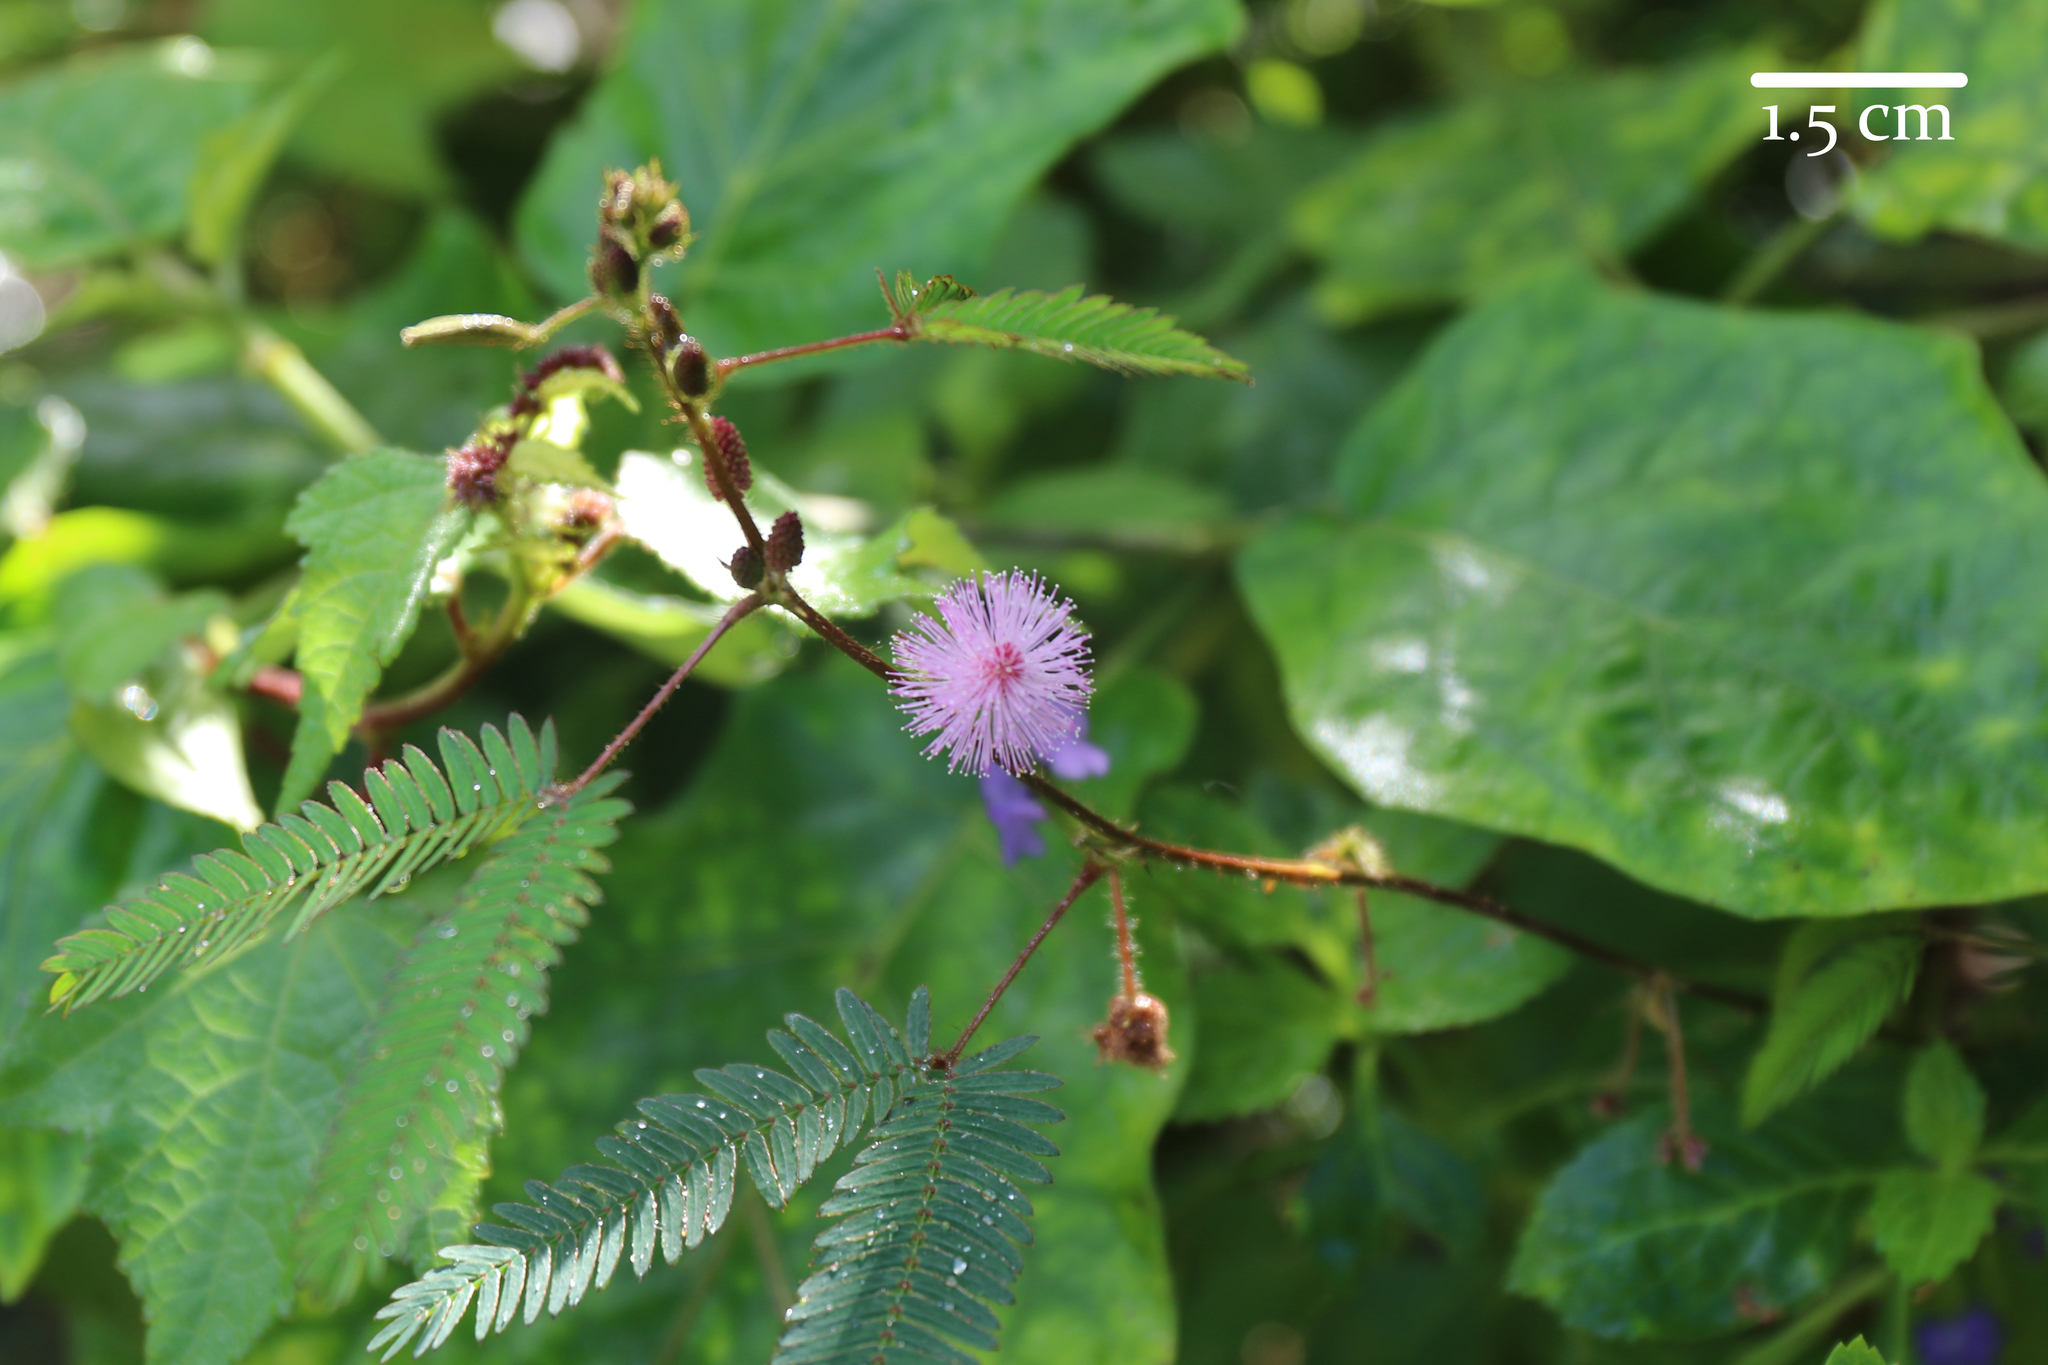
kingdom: Plantae
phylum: Tracheophyta
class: Magnoliopsida
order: Fabales
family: Fabaceae
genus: Mimosa
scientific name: Mimosa pudica
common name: Sensitive plant
